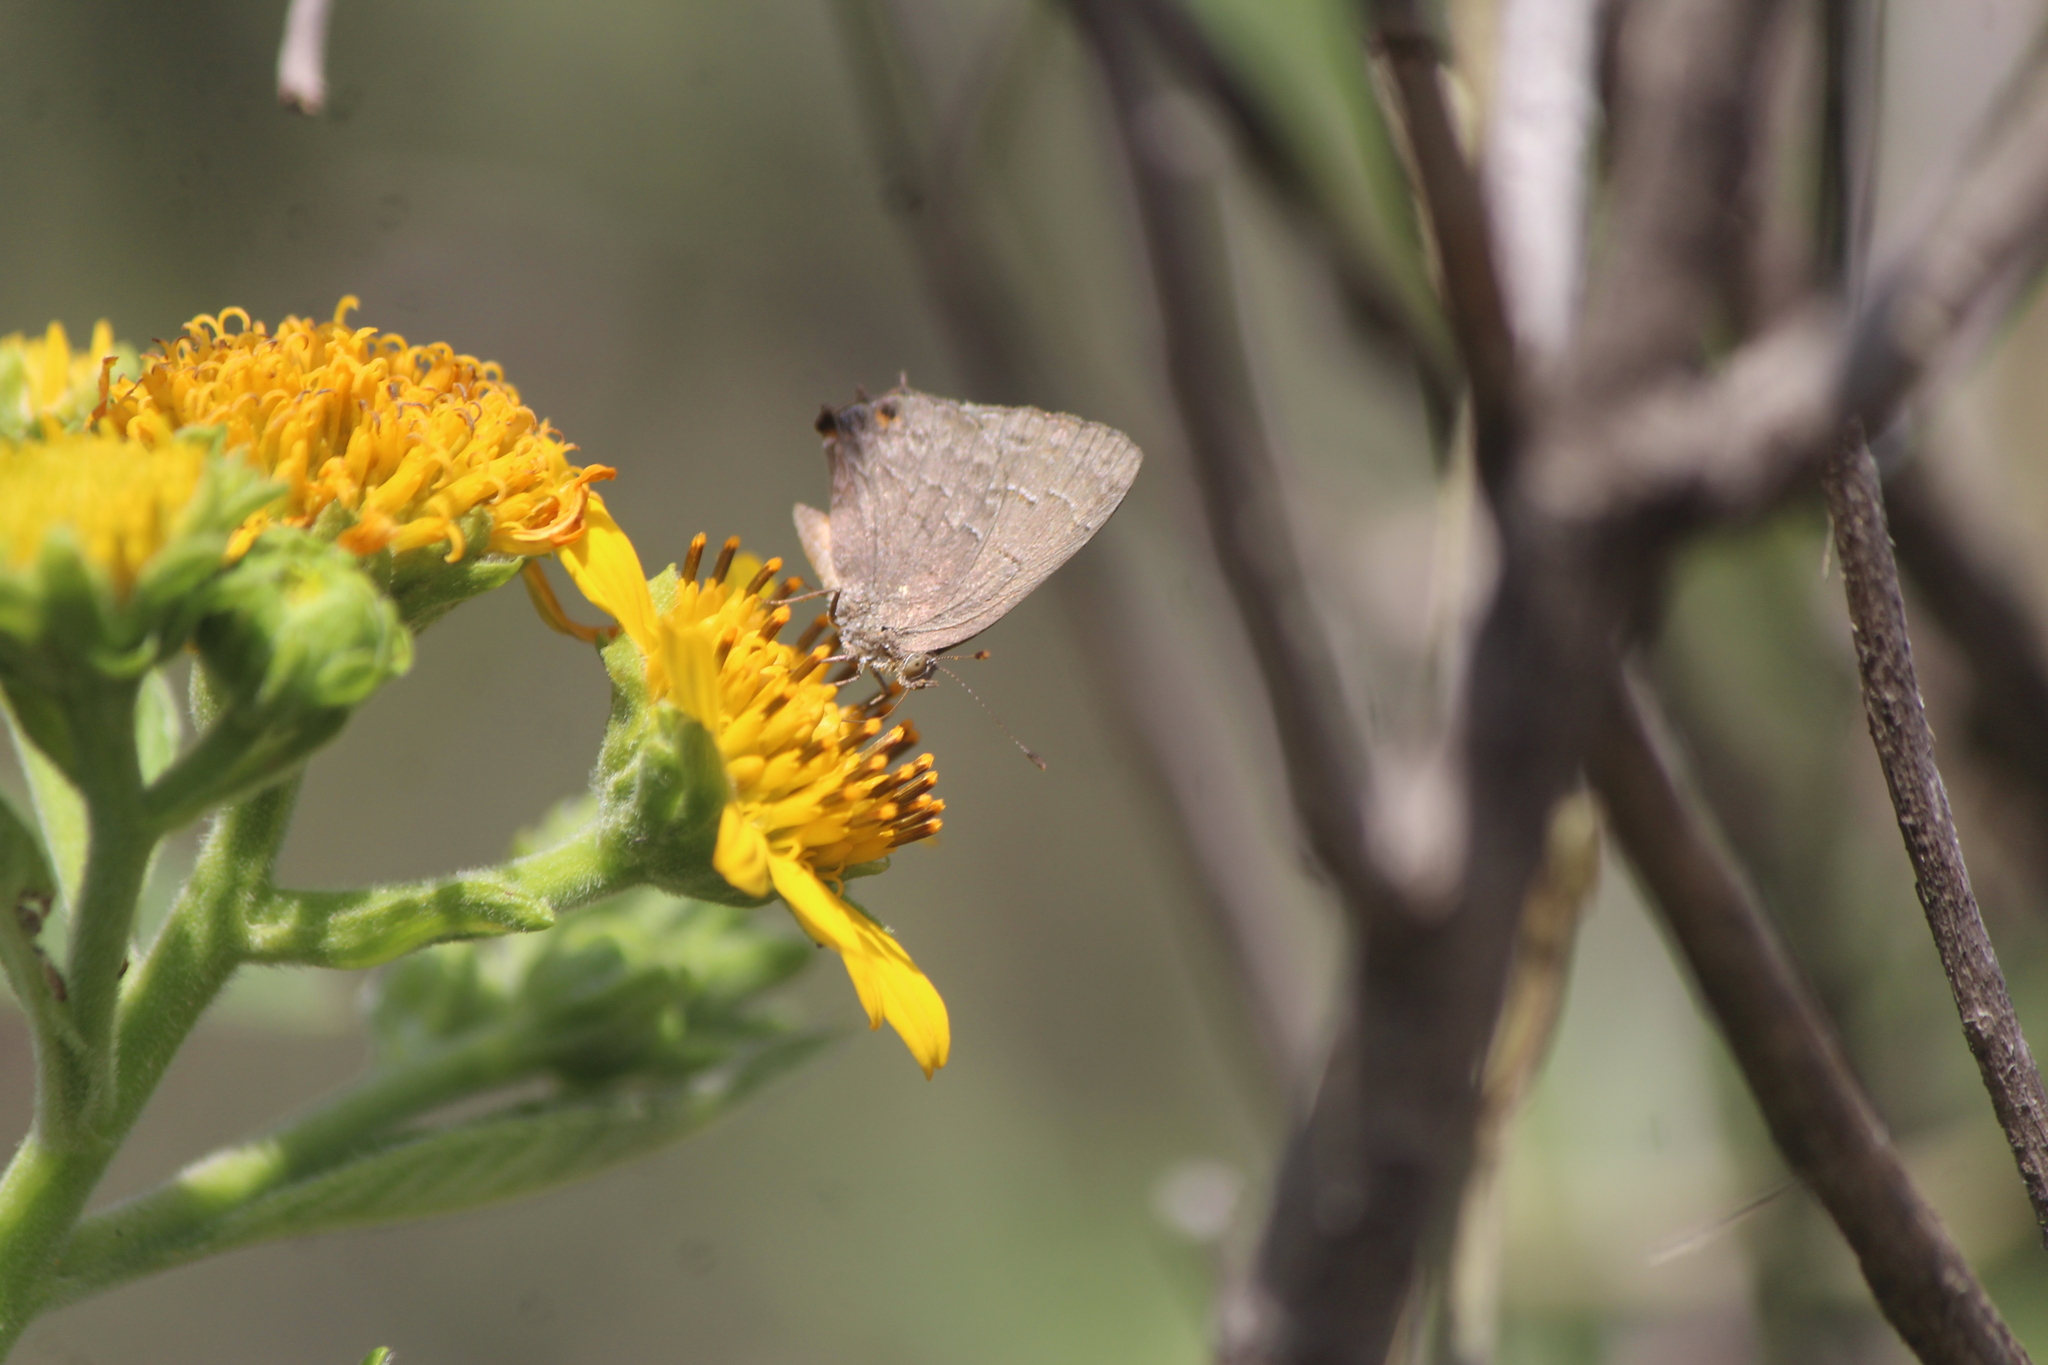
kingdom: Animalia
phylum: Arthropoda
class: Insecta
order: Lepidoptera
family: Lycaenidae
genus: Ministrymon
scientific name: Ministrymon leda
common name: Leda ministreak
